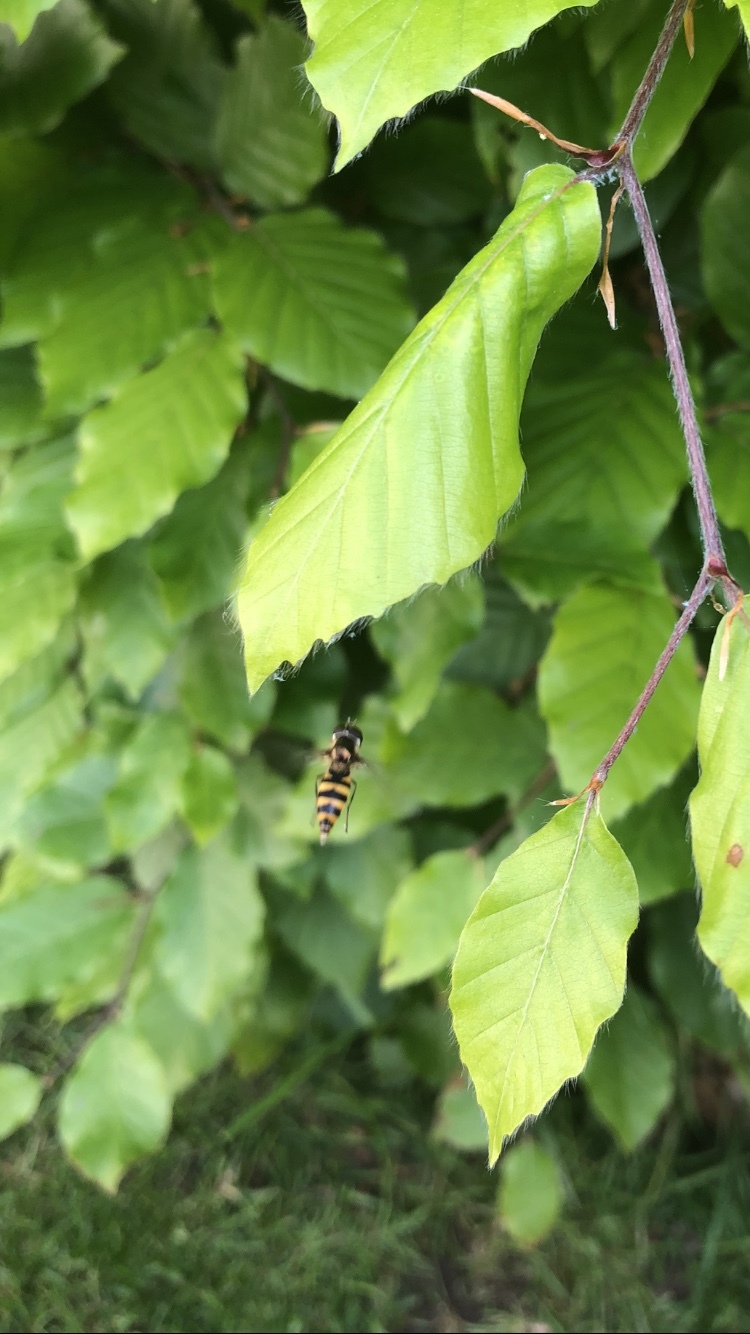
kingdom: Animalia
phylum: Arthropoda
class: Insecta
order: Diptera
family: Syrphidae
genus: Meliscaeva
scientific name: Meliscaeva cinctella
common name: American thintail fly
